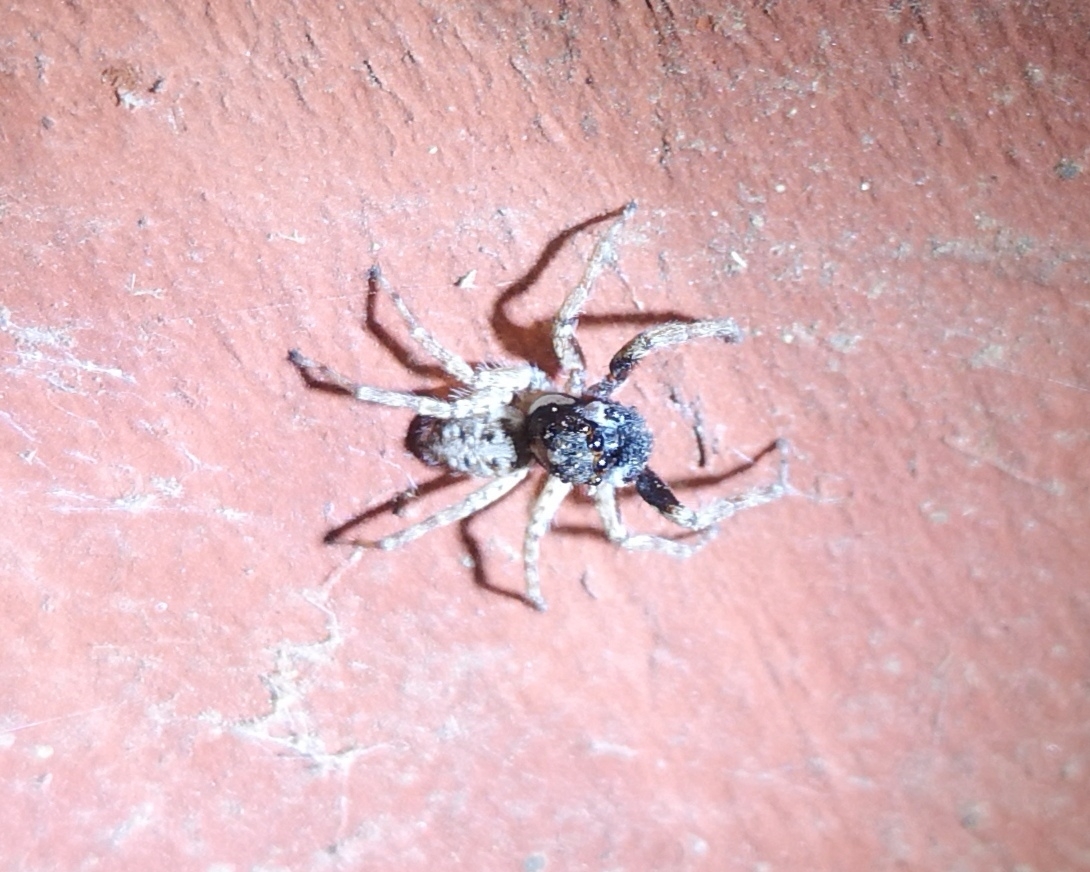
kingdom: Animalia
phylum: Arthropoda
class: Arachnida
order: Araneae
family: Salticidae
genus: Menemerus
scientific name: Menemerus semilimbatus
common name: Jumping spider
